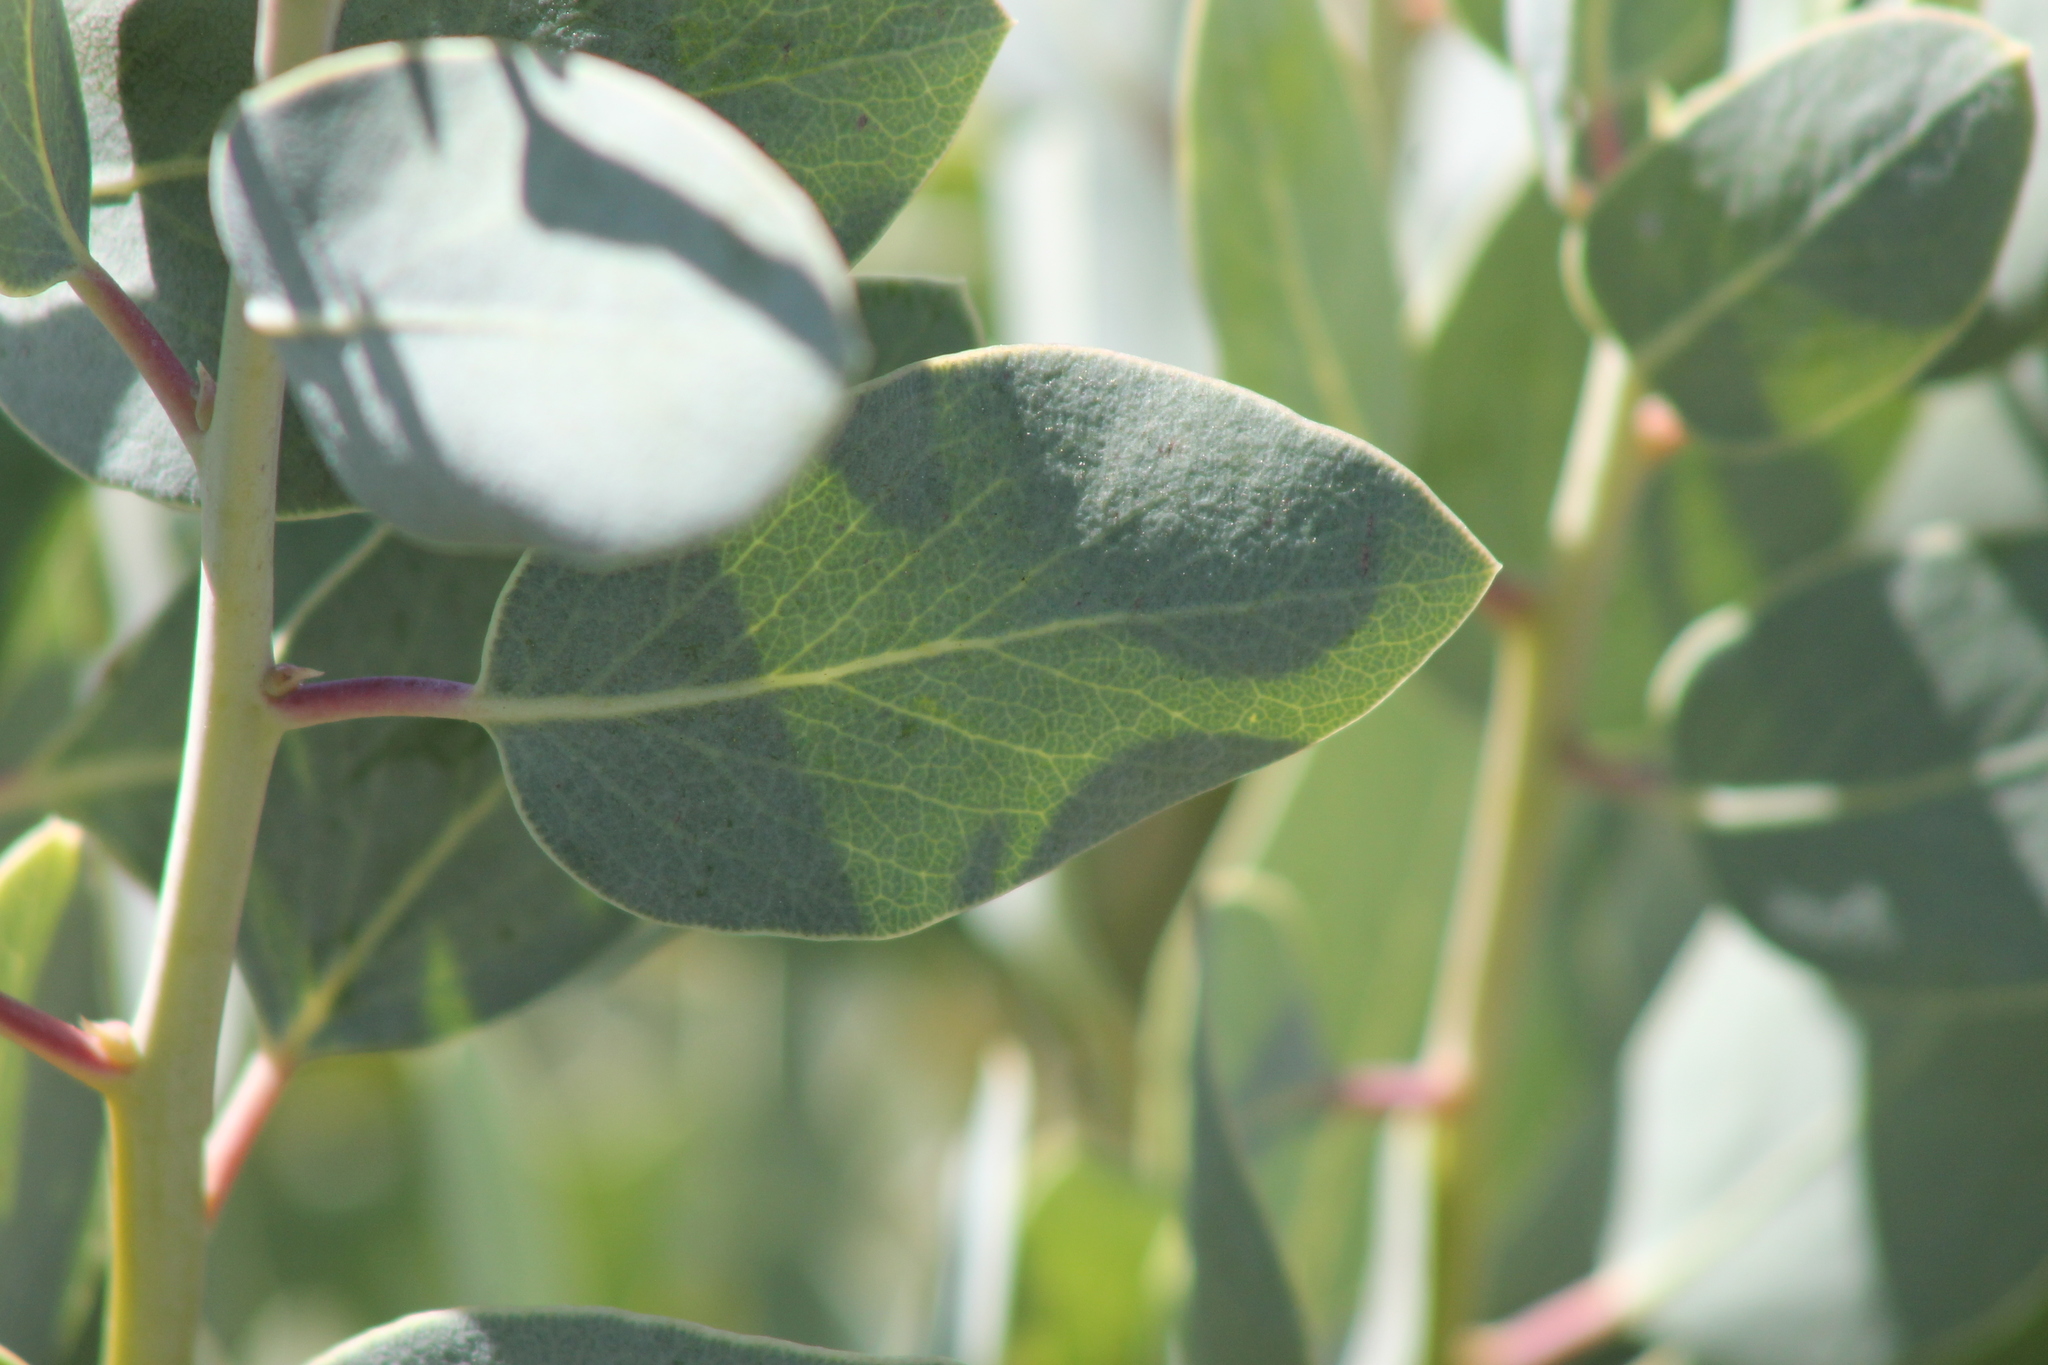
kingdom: Plantae
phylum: Tracheophyta
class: Magnoliopsida
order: Ericales
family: Ericaceae
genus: Arctostaphylos
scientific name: Arctostaphylos glauca
